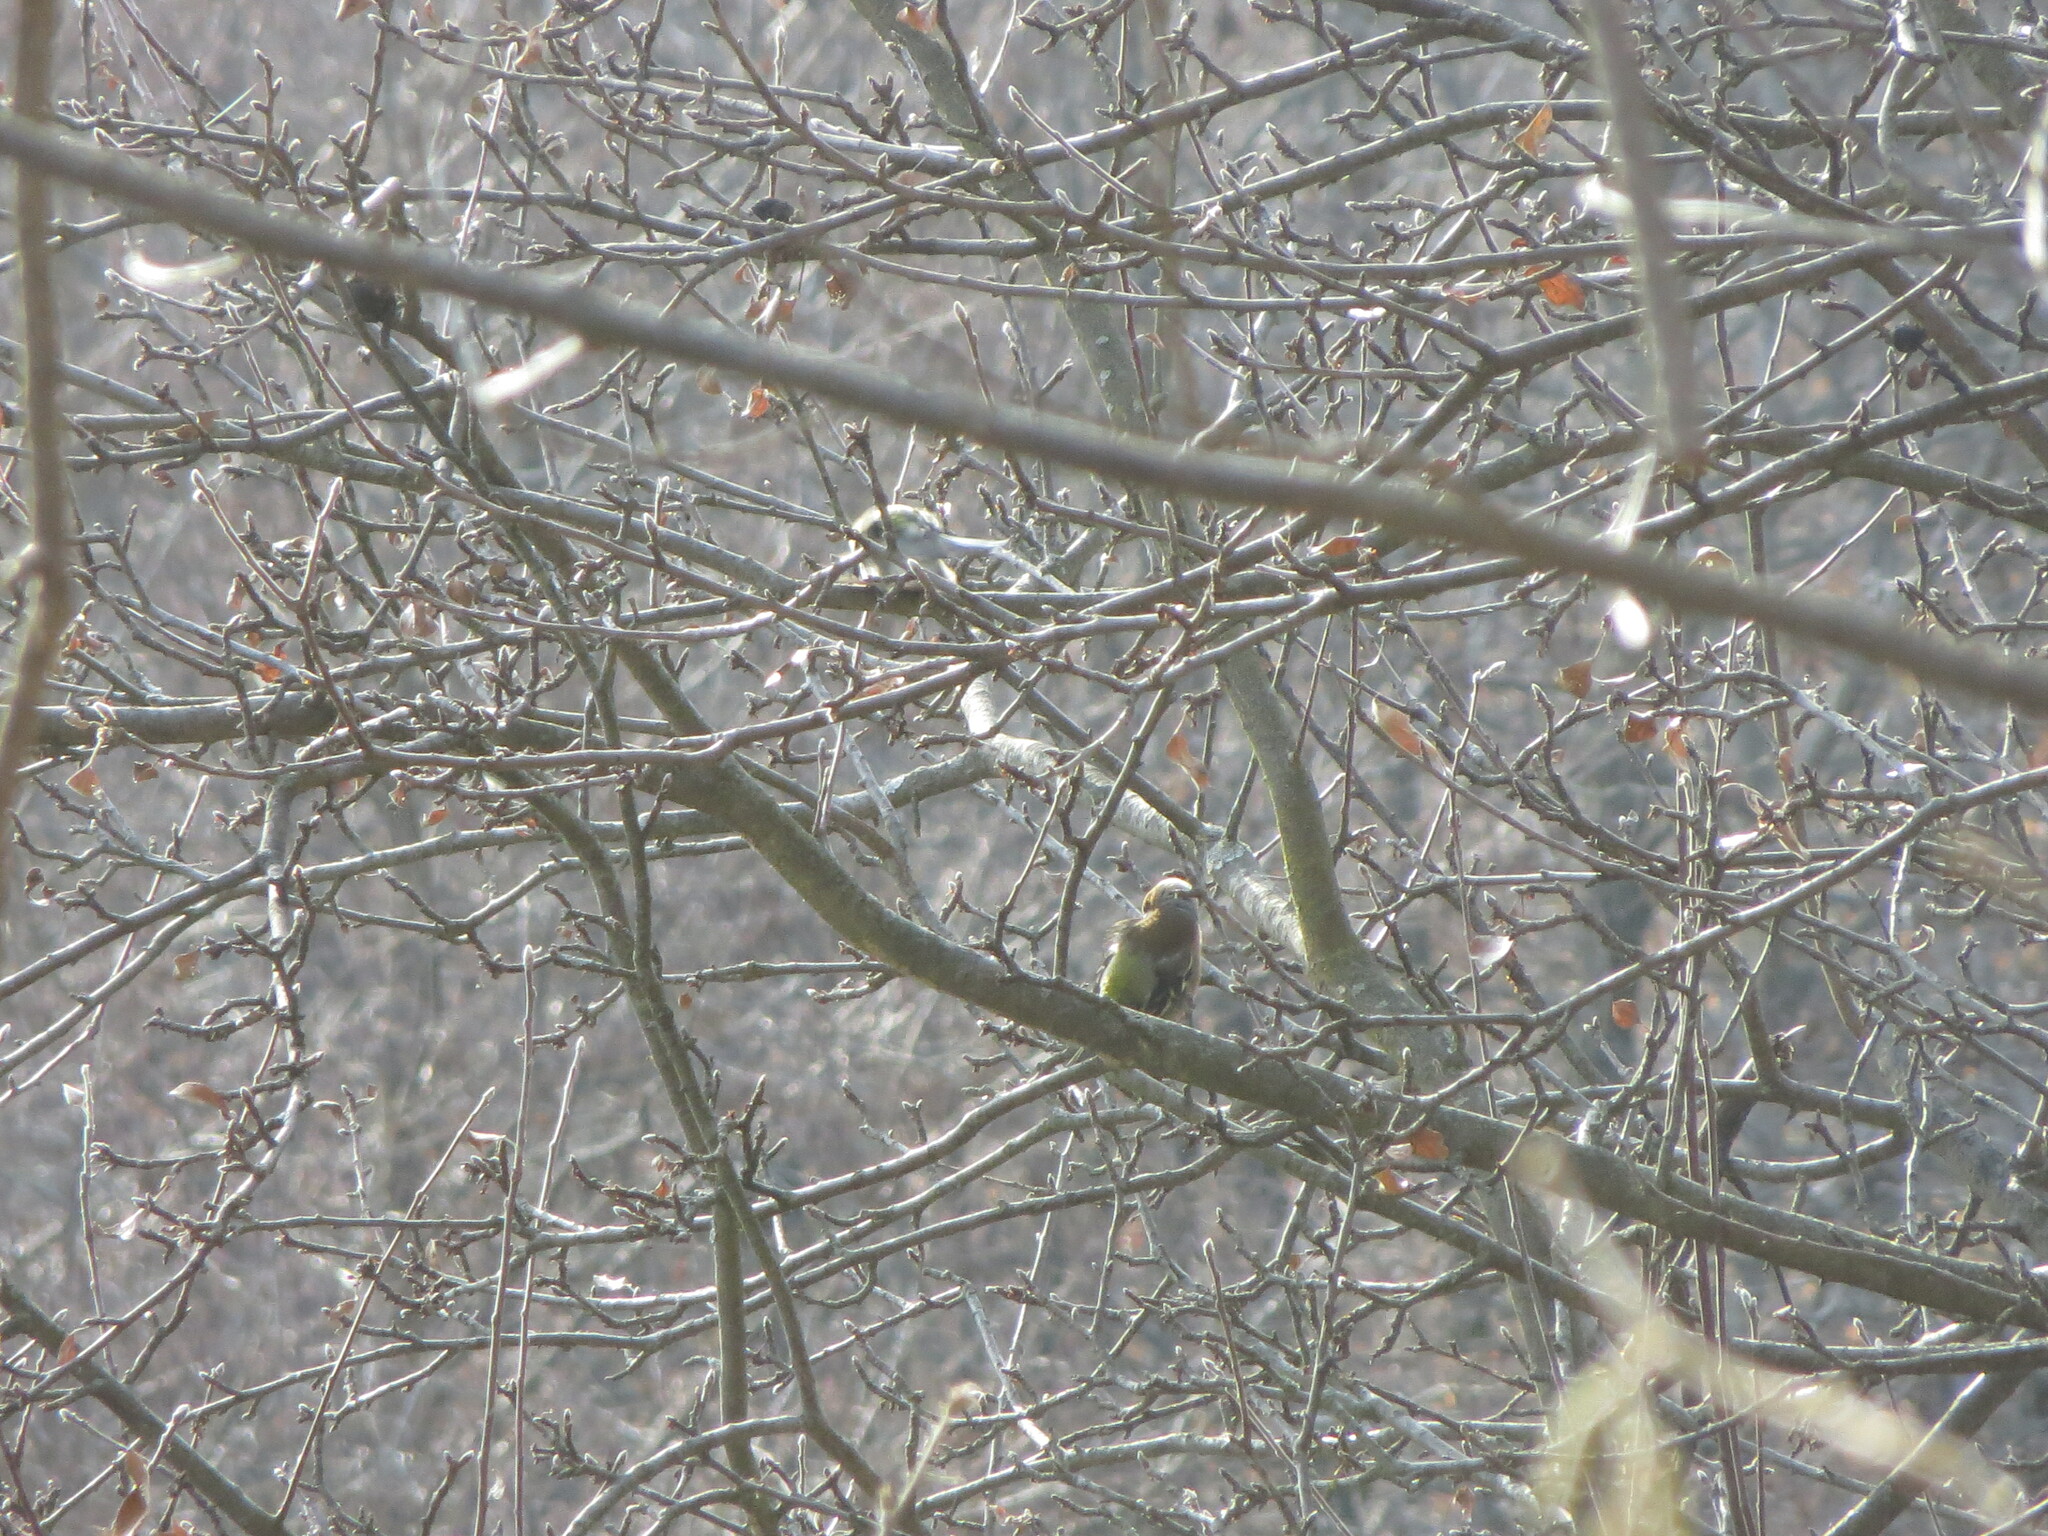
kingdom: Animalia
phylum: Chordata
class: Aves
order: Passeriformes
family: Fringillidae
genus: Fringilla
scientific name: Fringilla coelebs
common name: Common chaffinch
